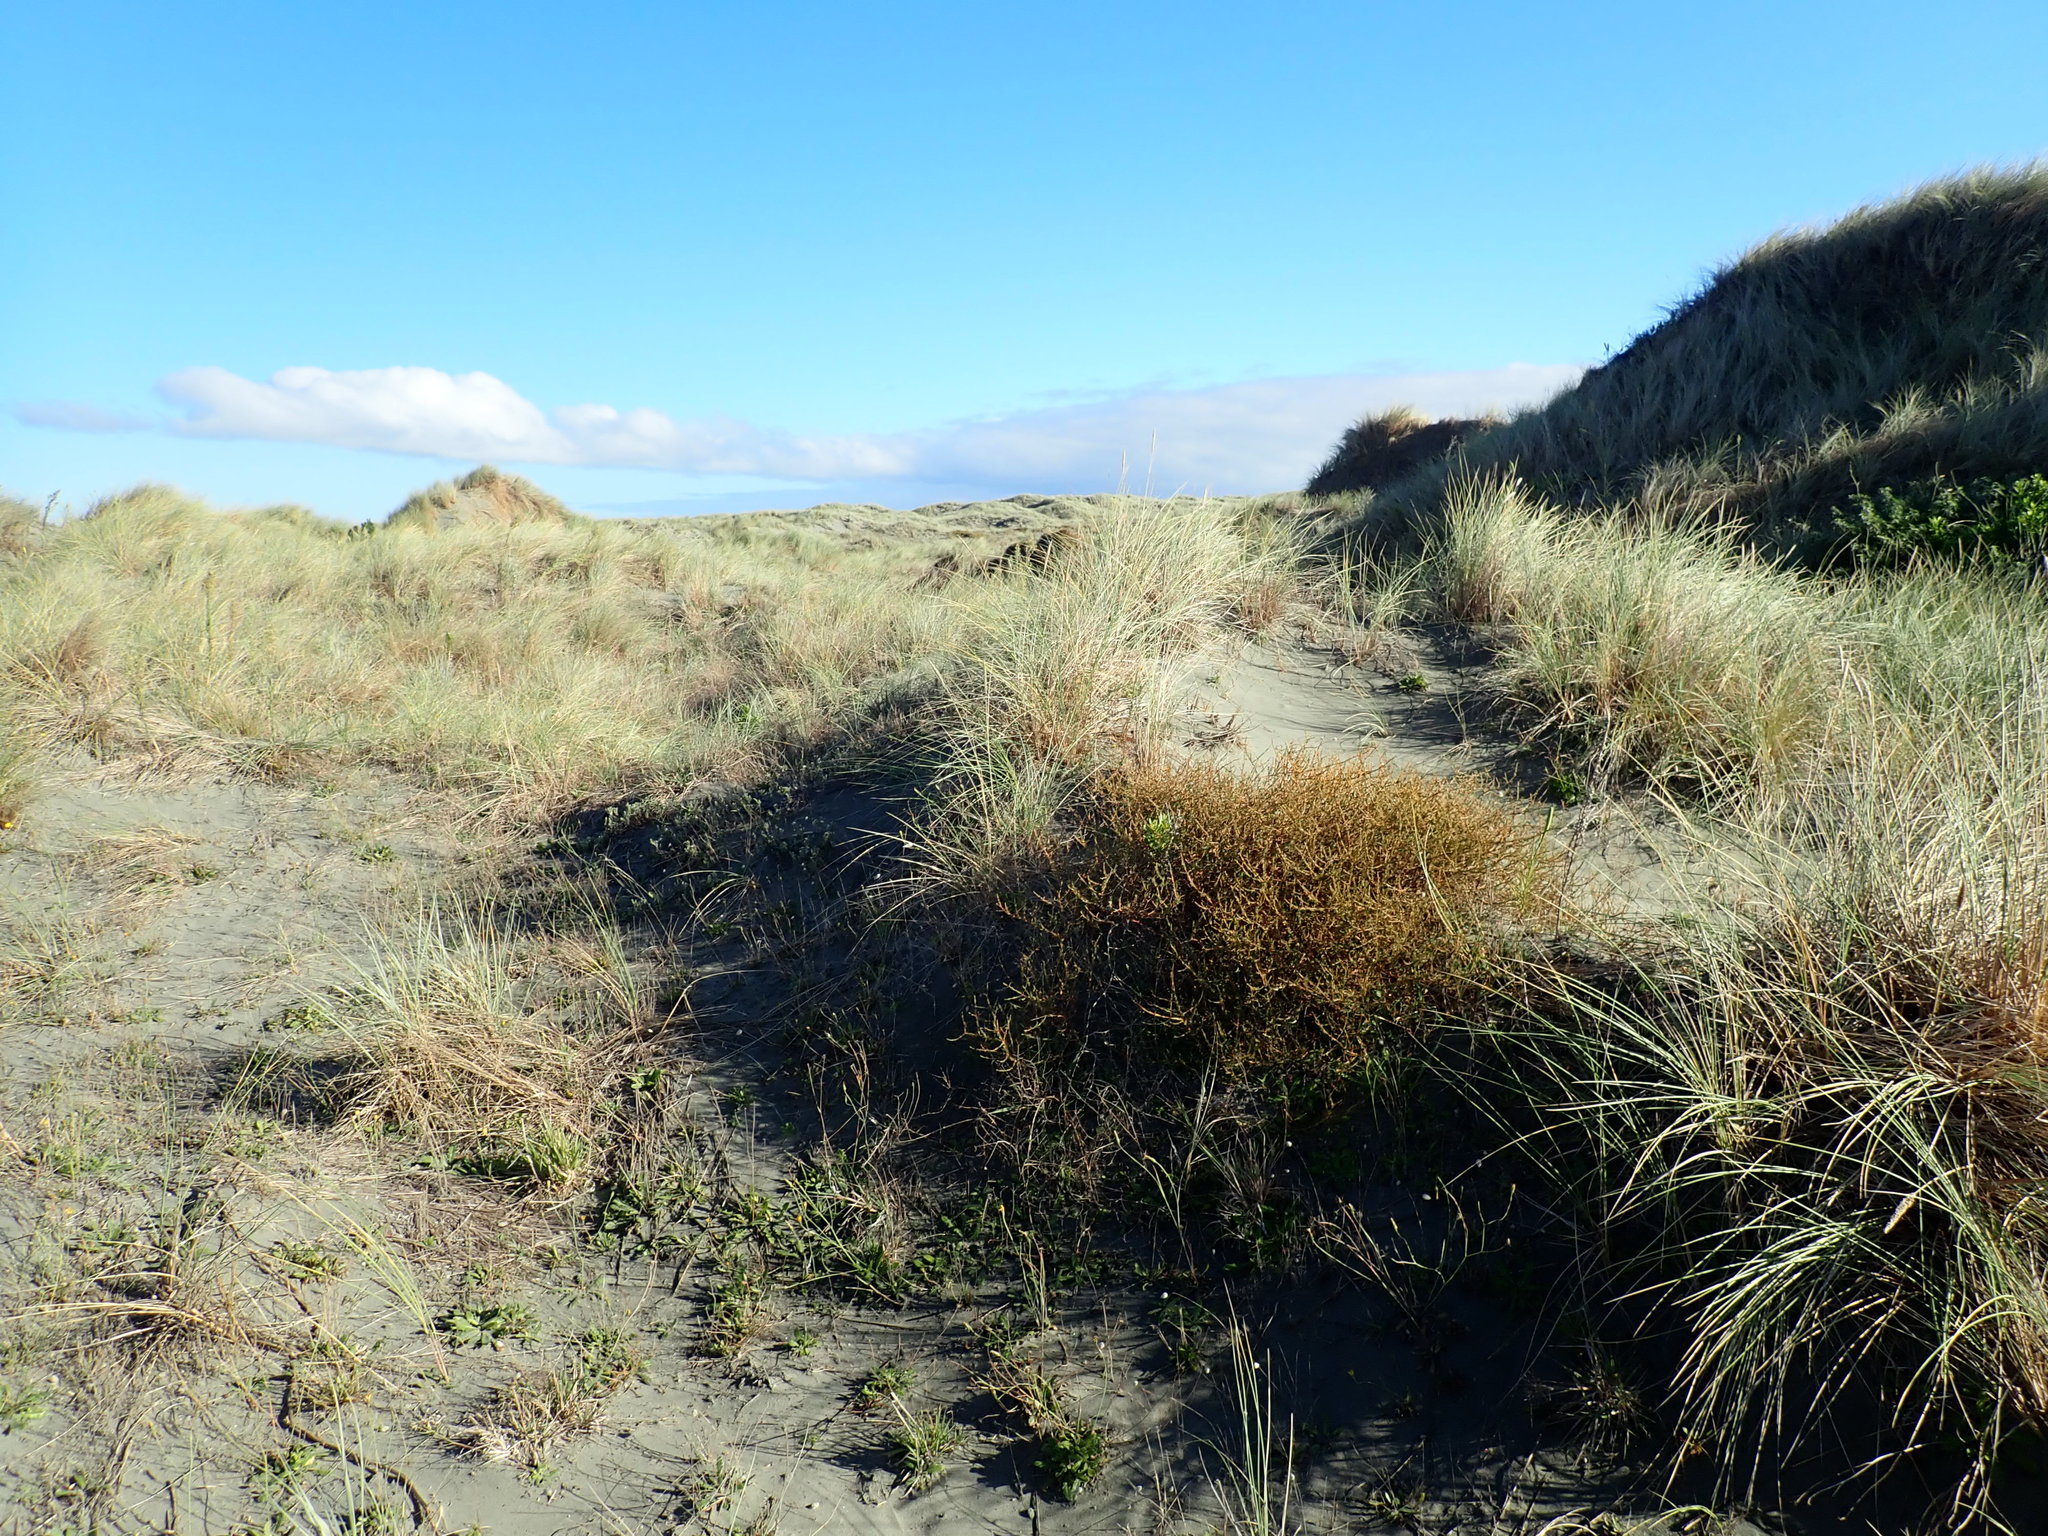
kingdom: Plantae
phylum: Tracheophyta
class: Magnoliopsida
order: Gentianales
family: Rubiaceae
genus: Coprosma
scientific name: Coprosma acerosa
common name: Sand coprosma
